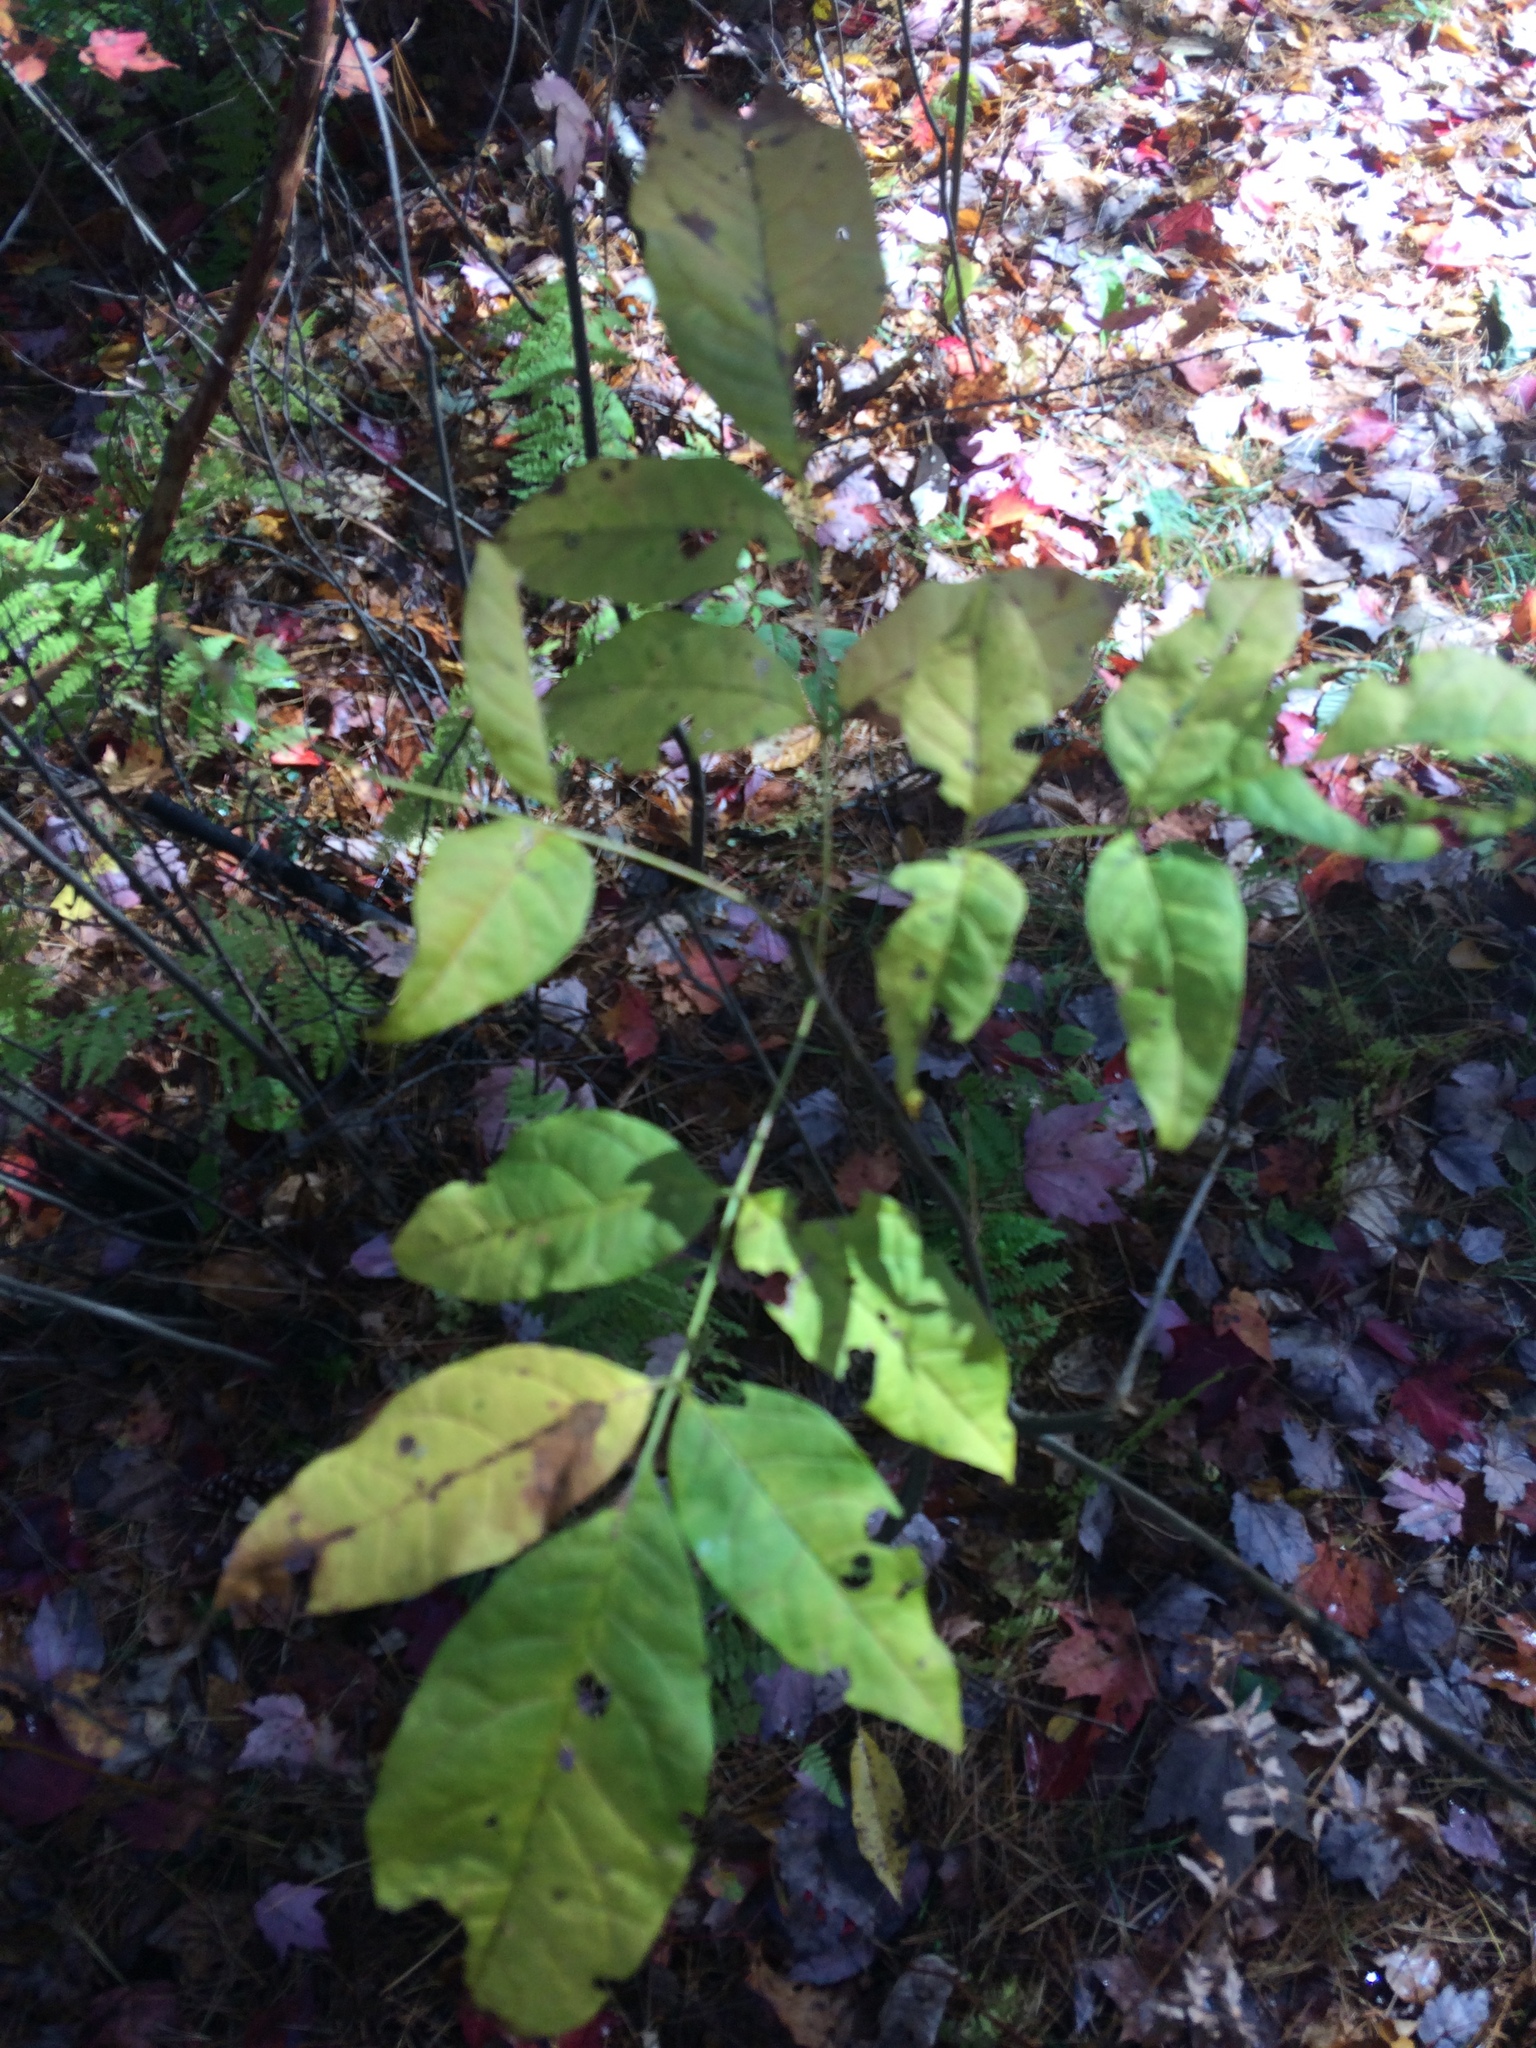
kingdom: Plantae
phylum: Tracheophyta
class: Magnoliopsida
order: Lamiales
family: Oleaceae
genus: Fraxinus
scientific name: Fraxinus americana
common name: White ash
